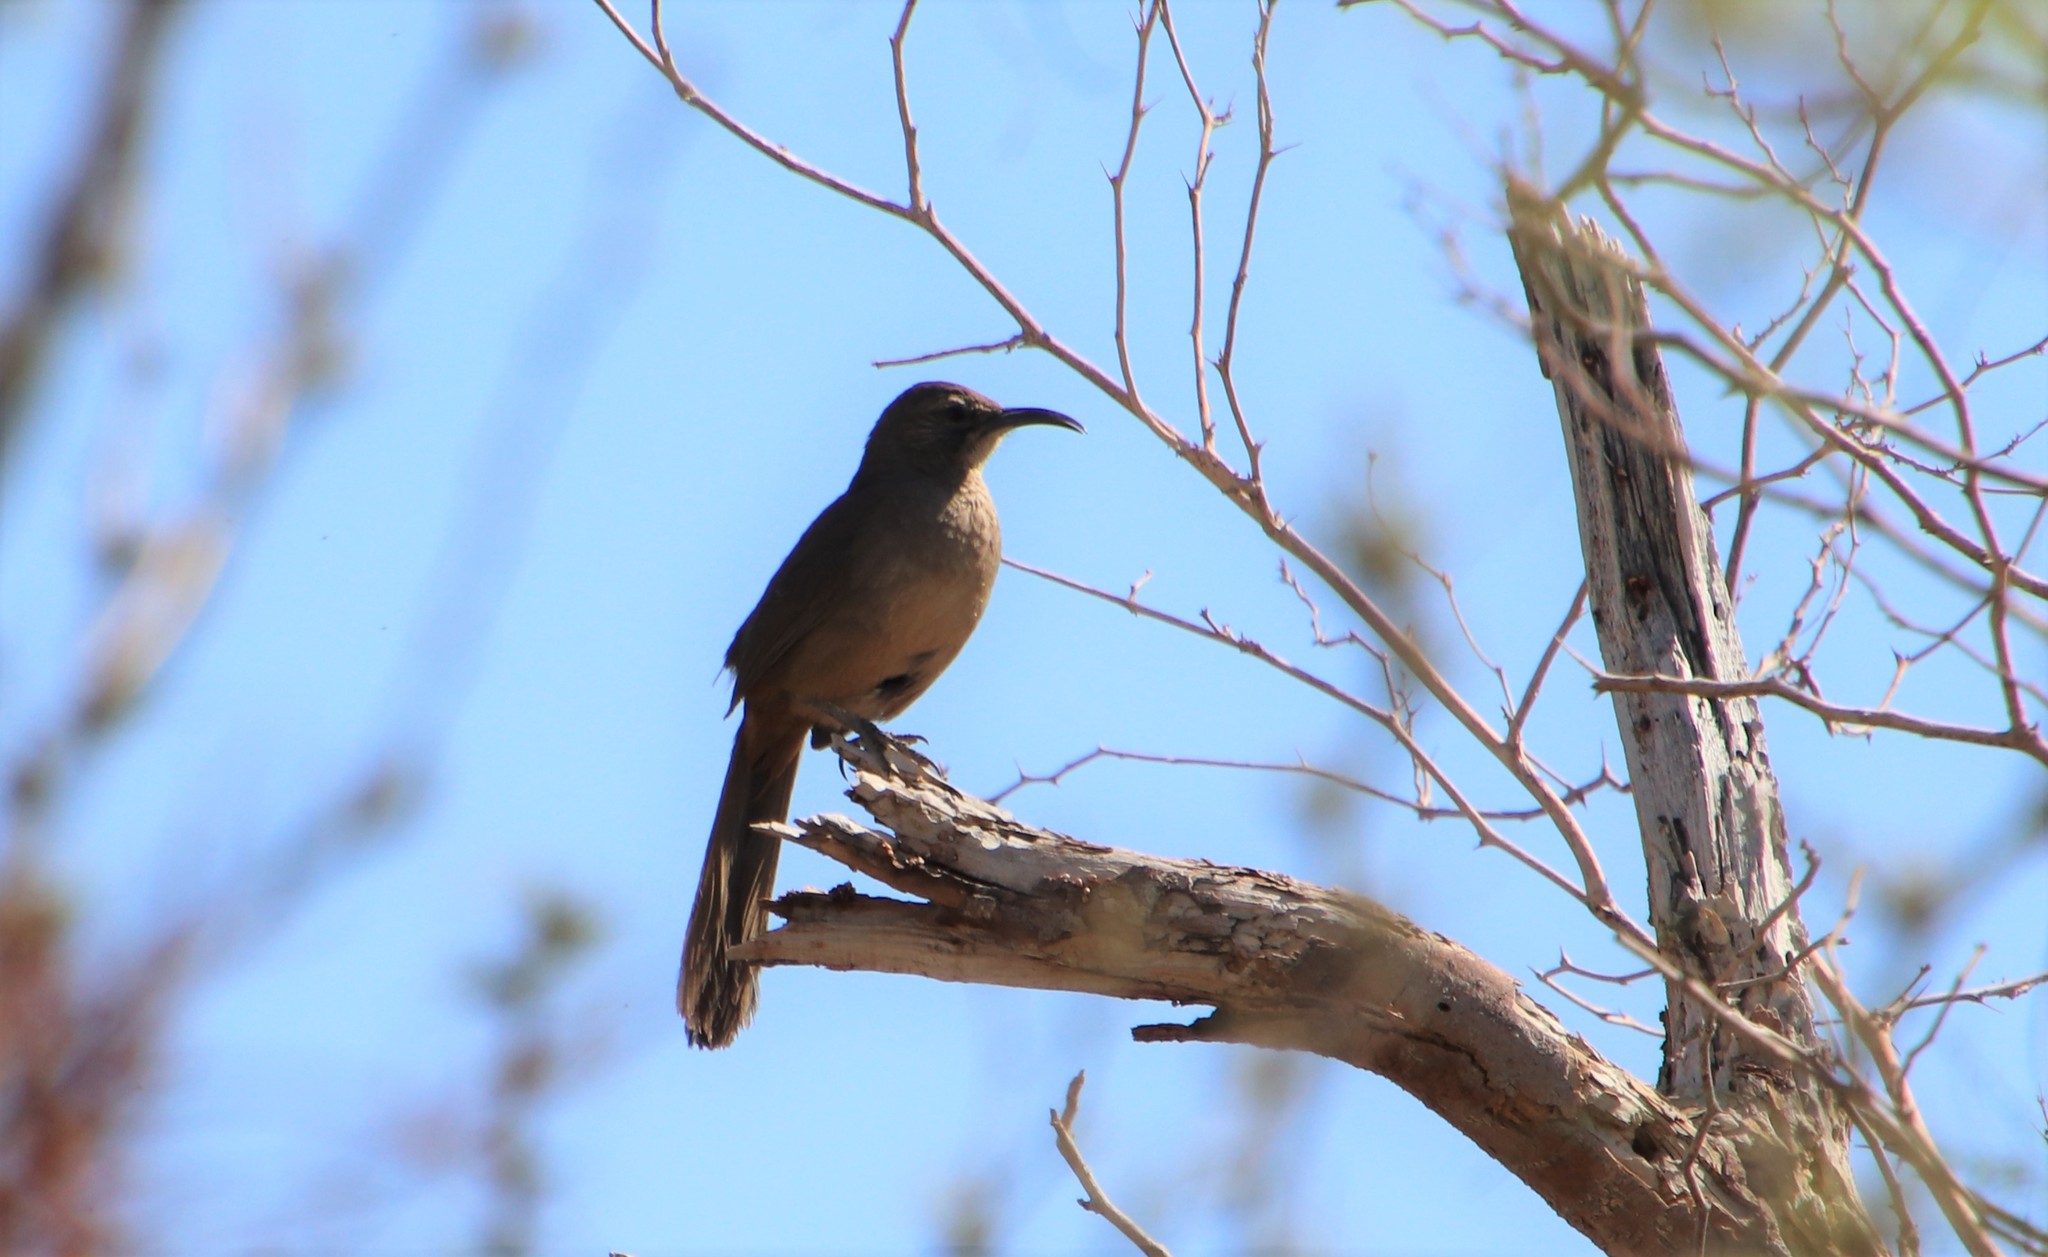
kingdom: Animalia
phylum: Chordata
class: Aves
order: Passeriformes
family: Mimidae
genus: Toxostoma
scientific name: Toxostoma redivivum
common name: California thrasher
